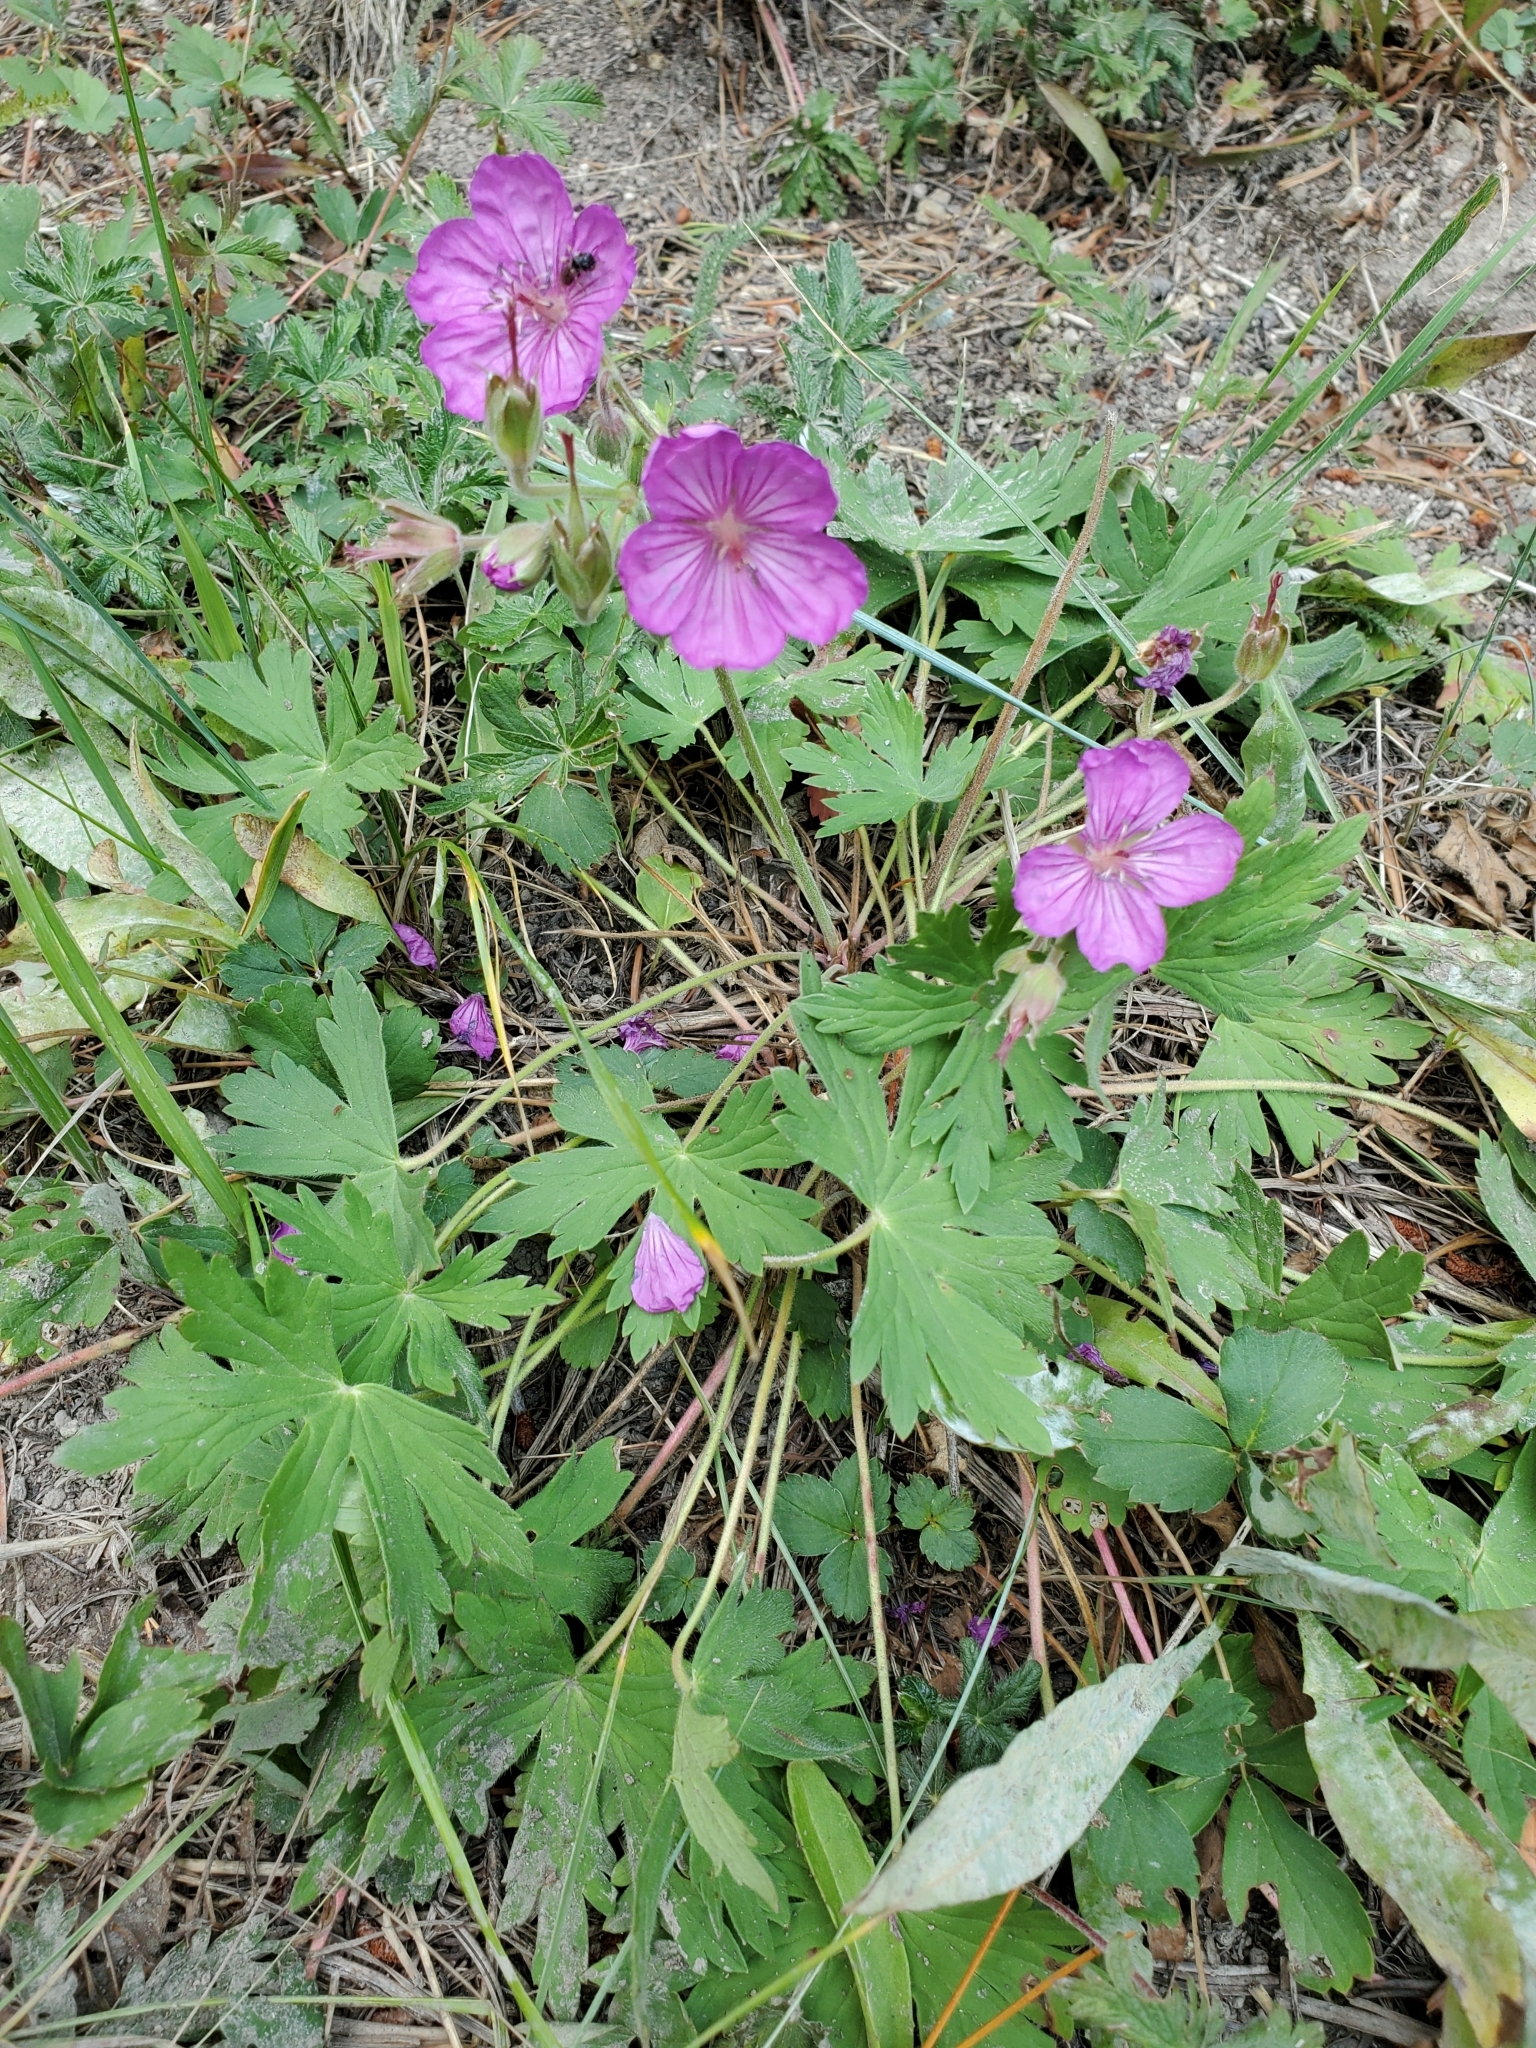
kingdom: Plantae
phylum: Tracheophyta
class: Magnoliopsida
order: Geraniales
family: Geraniaceae
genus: Geranium
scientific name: Geranium viscosissimum
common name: Purple geranium
